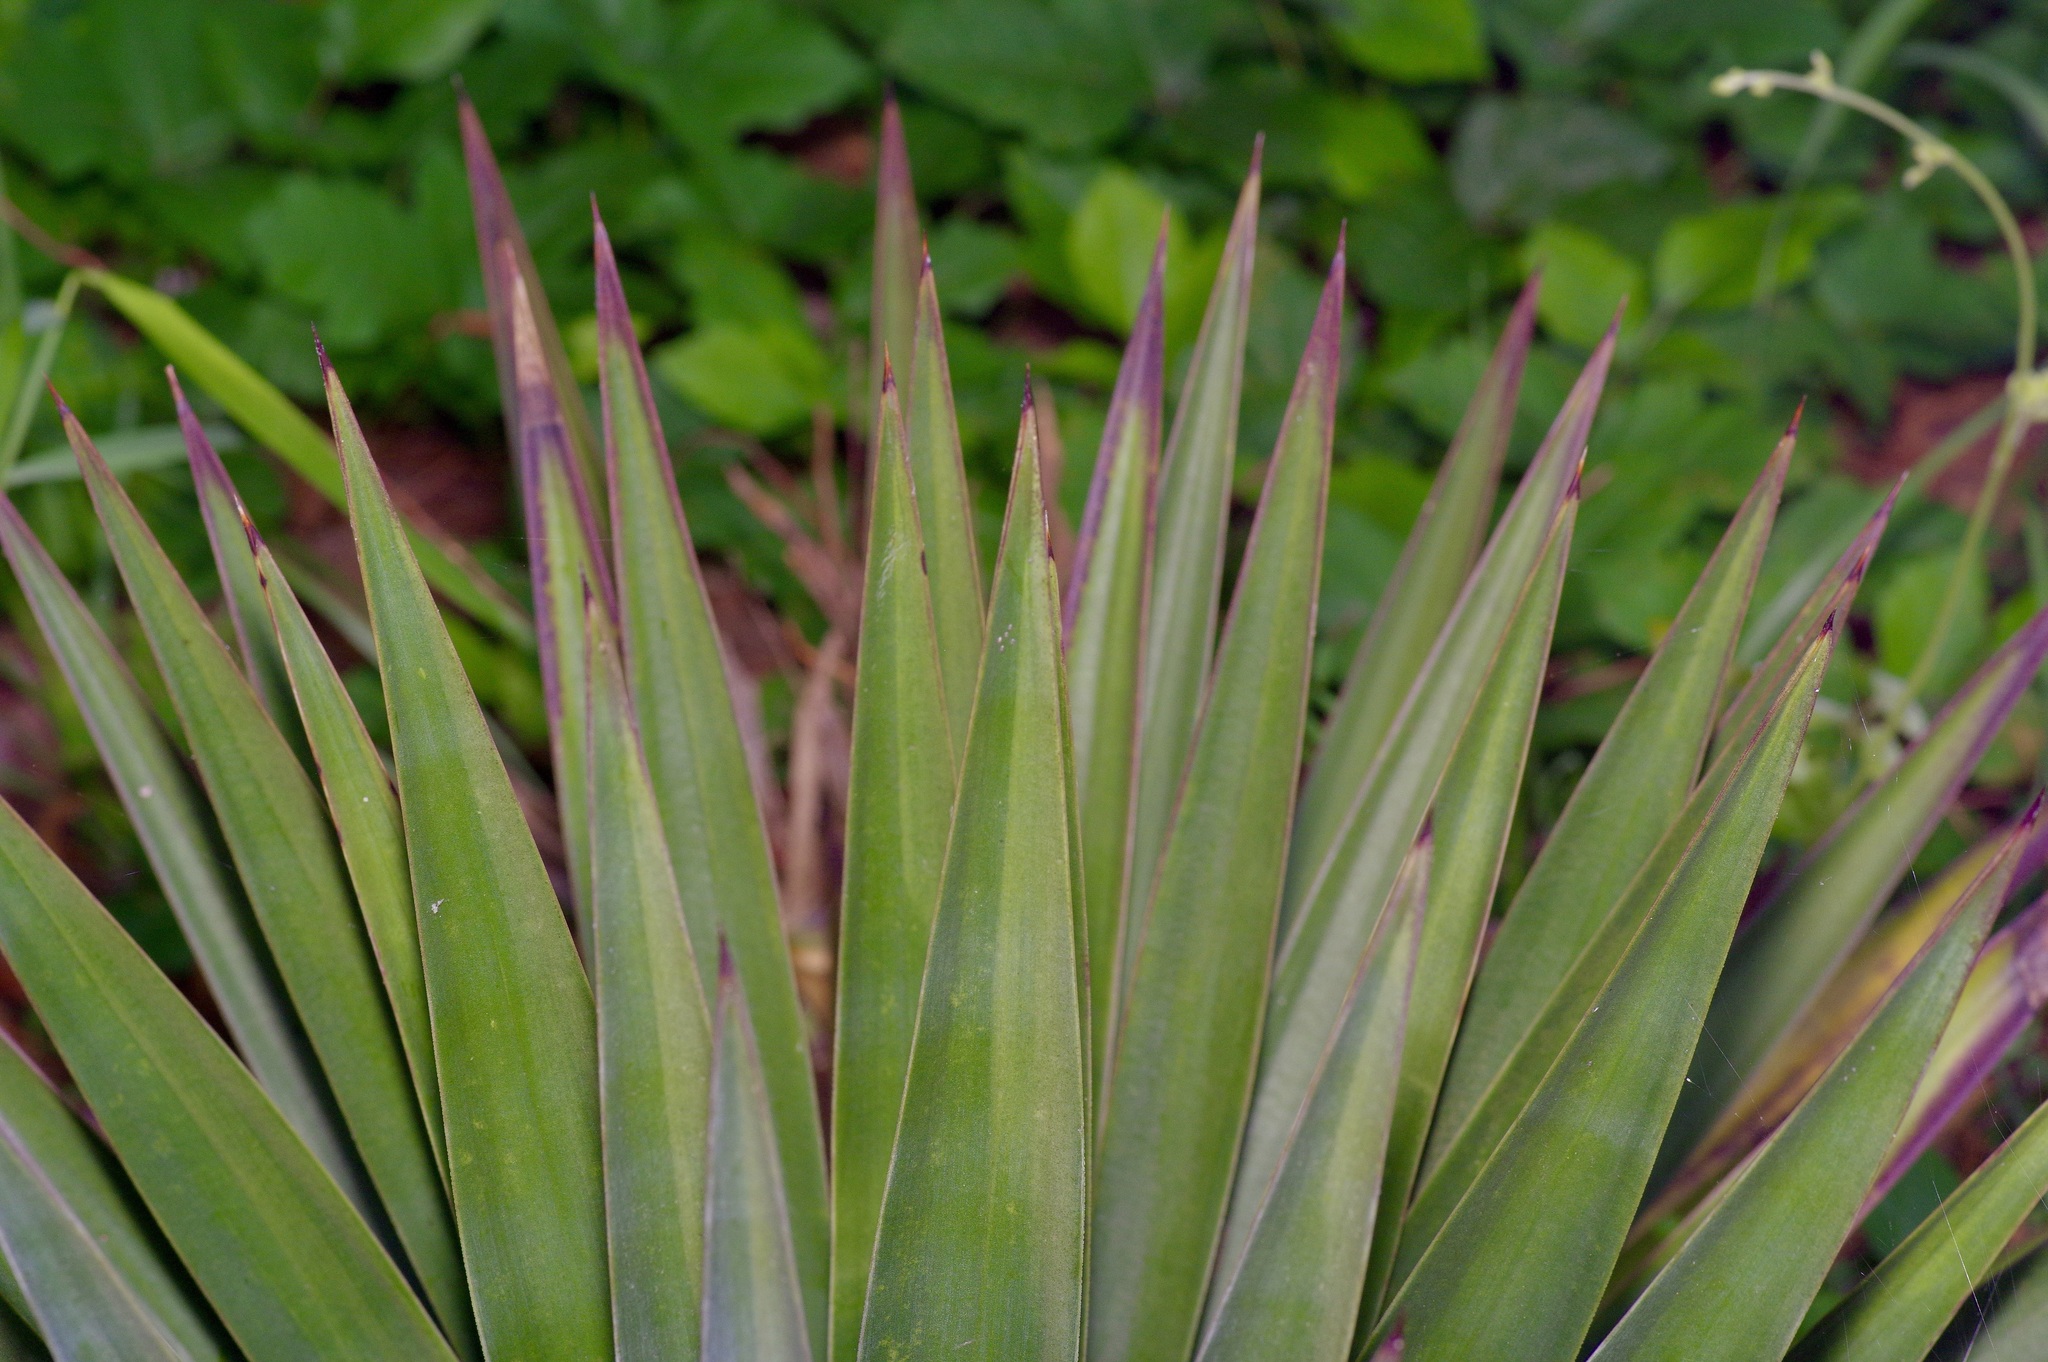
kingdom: Plantae
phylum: Tracheophyta
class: Liliopsida
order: Asparagales
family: Asparagaceae
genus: Yucca
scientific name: Yucca aloifolia
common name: Aloe yucca
